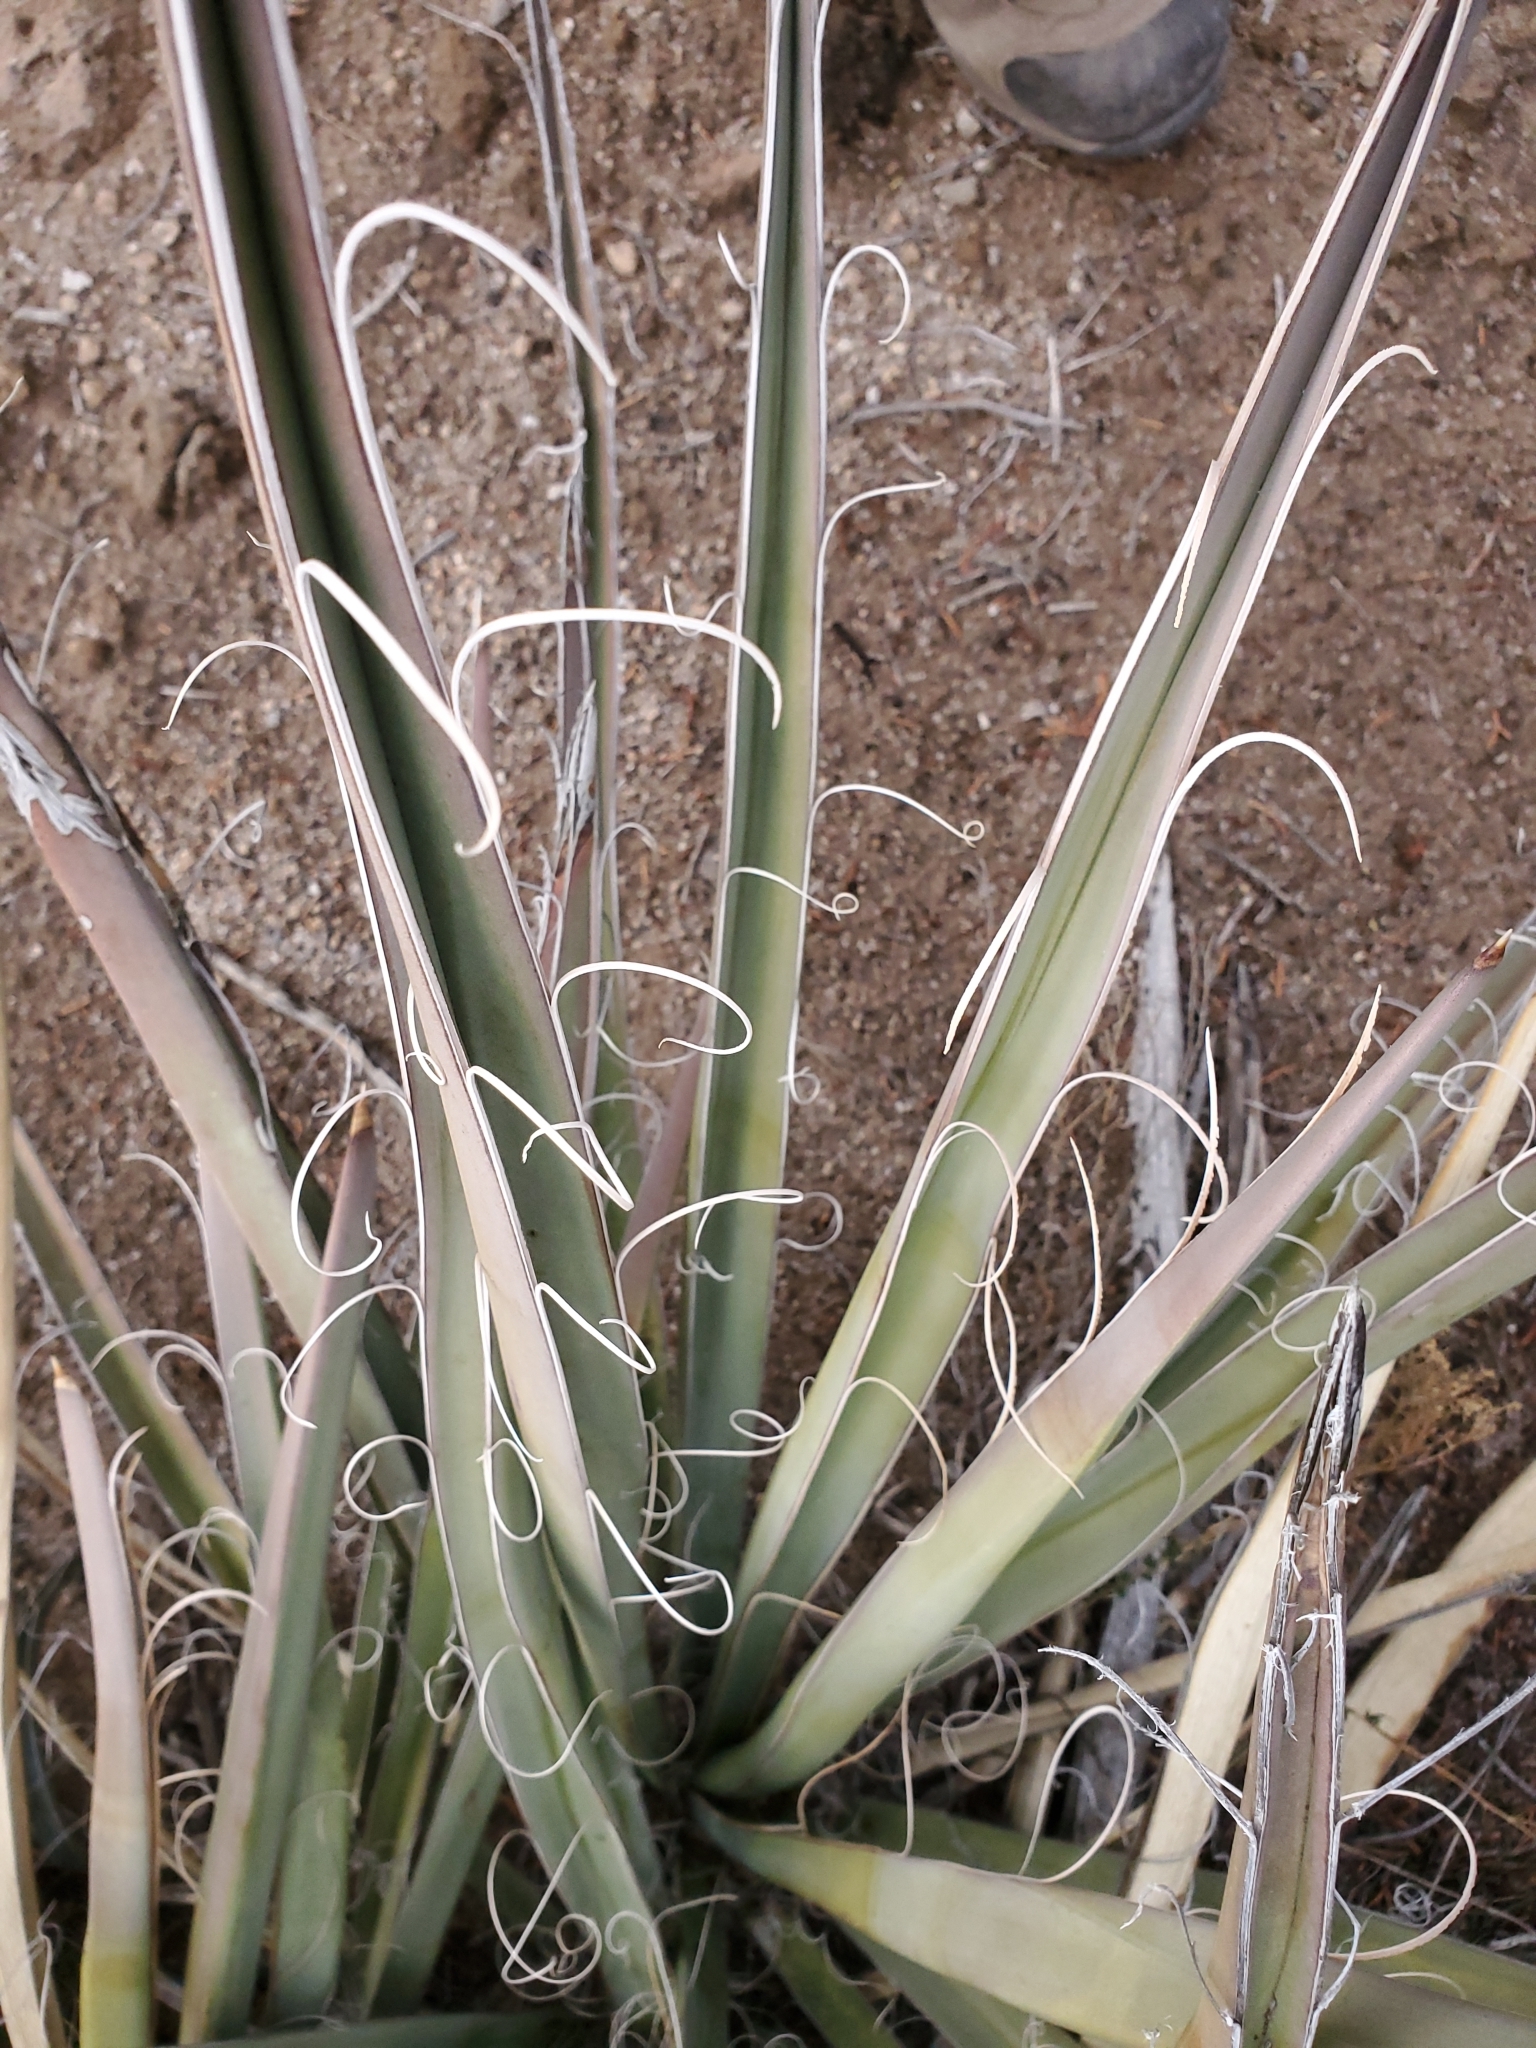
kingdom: Plantae
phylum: Tracheophyta
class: Liliopsida
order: Asparagales
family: Asparagaceae
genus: Yucca
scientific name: Yucca baccata
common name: Banana yucca
